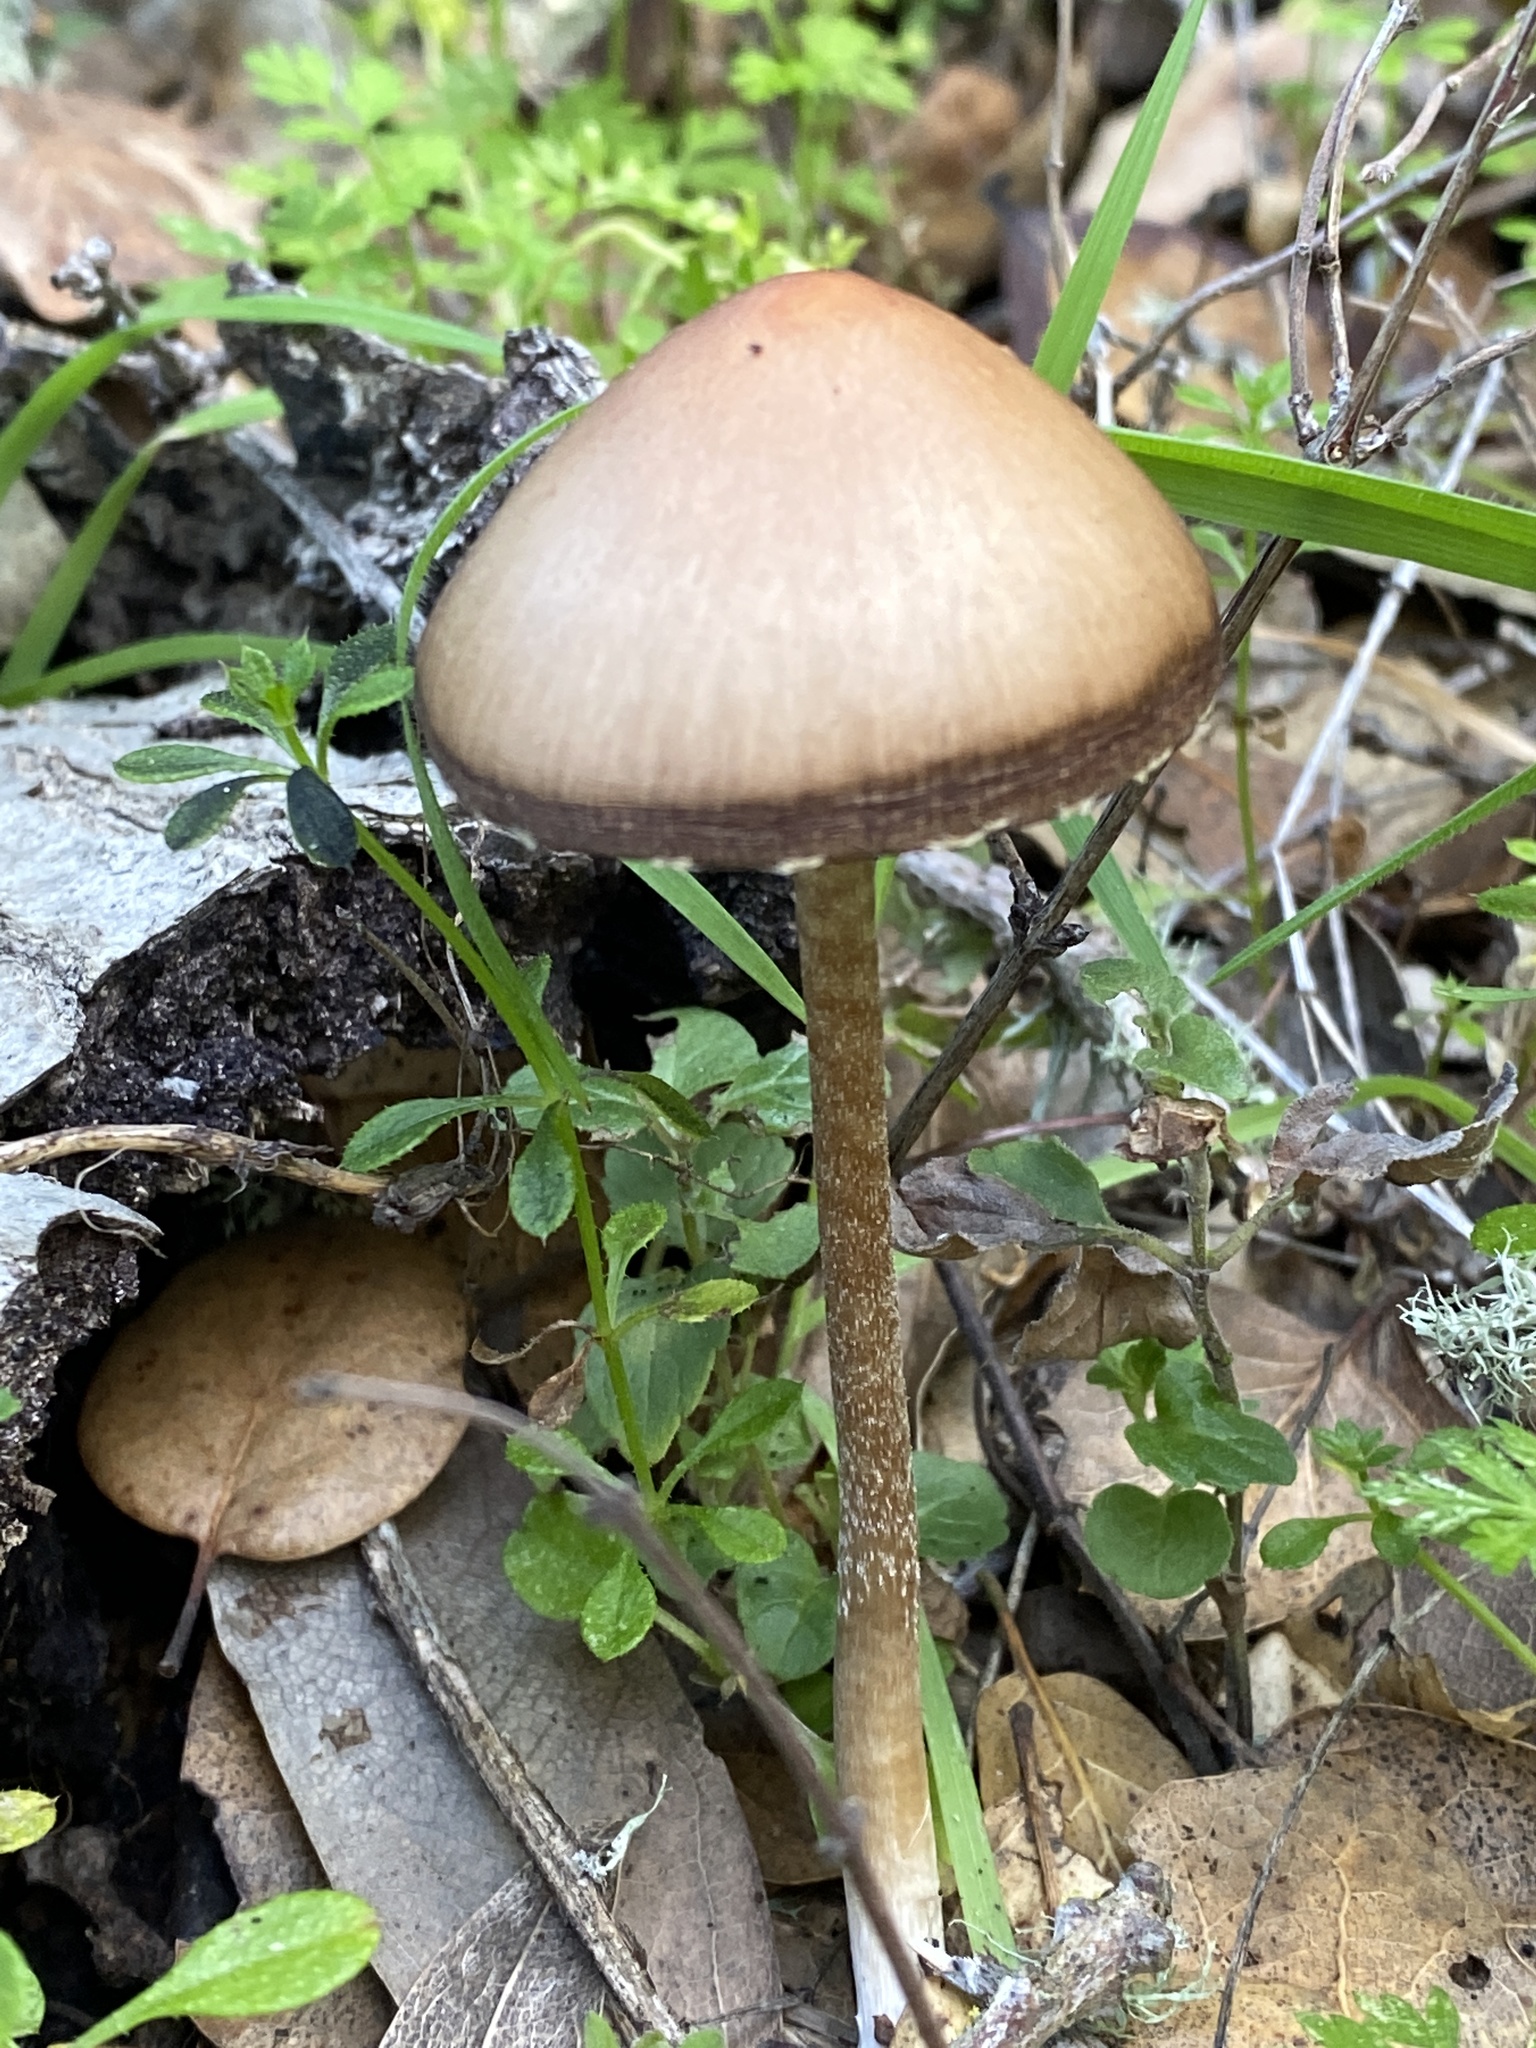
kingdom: Fungi
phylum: Basidiomycota
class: Agaricomycetes
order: Agaricales
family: Psathyrellaceae
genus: Psathyrella
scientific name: Psathyrella longipes
